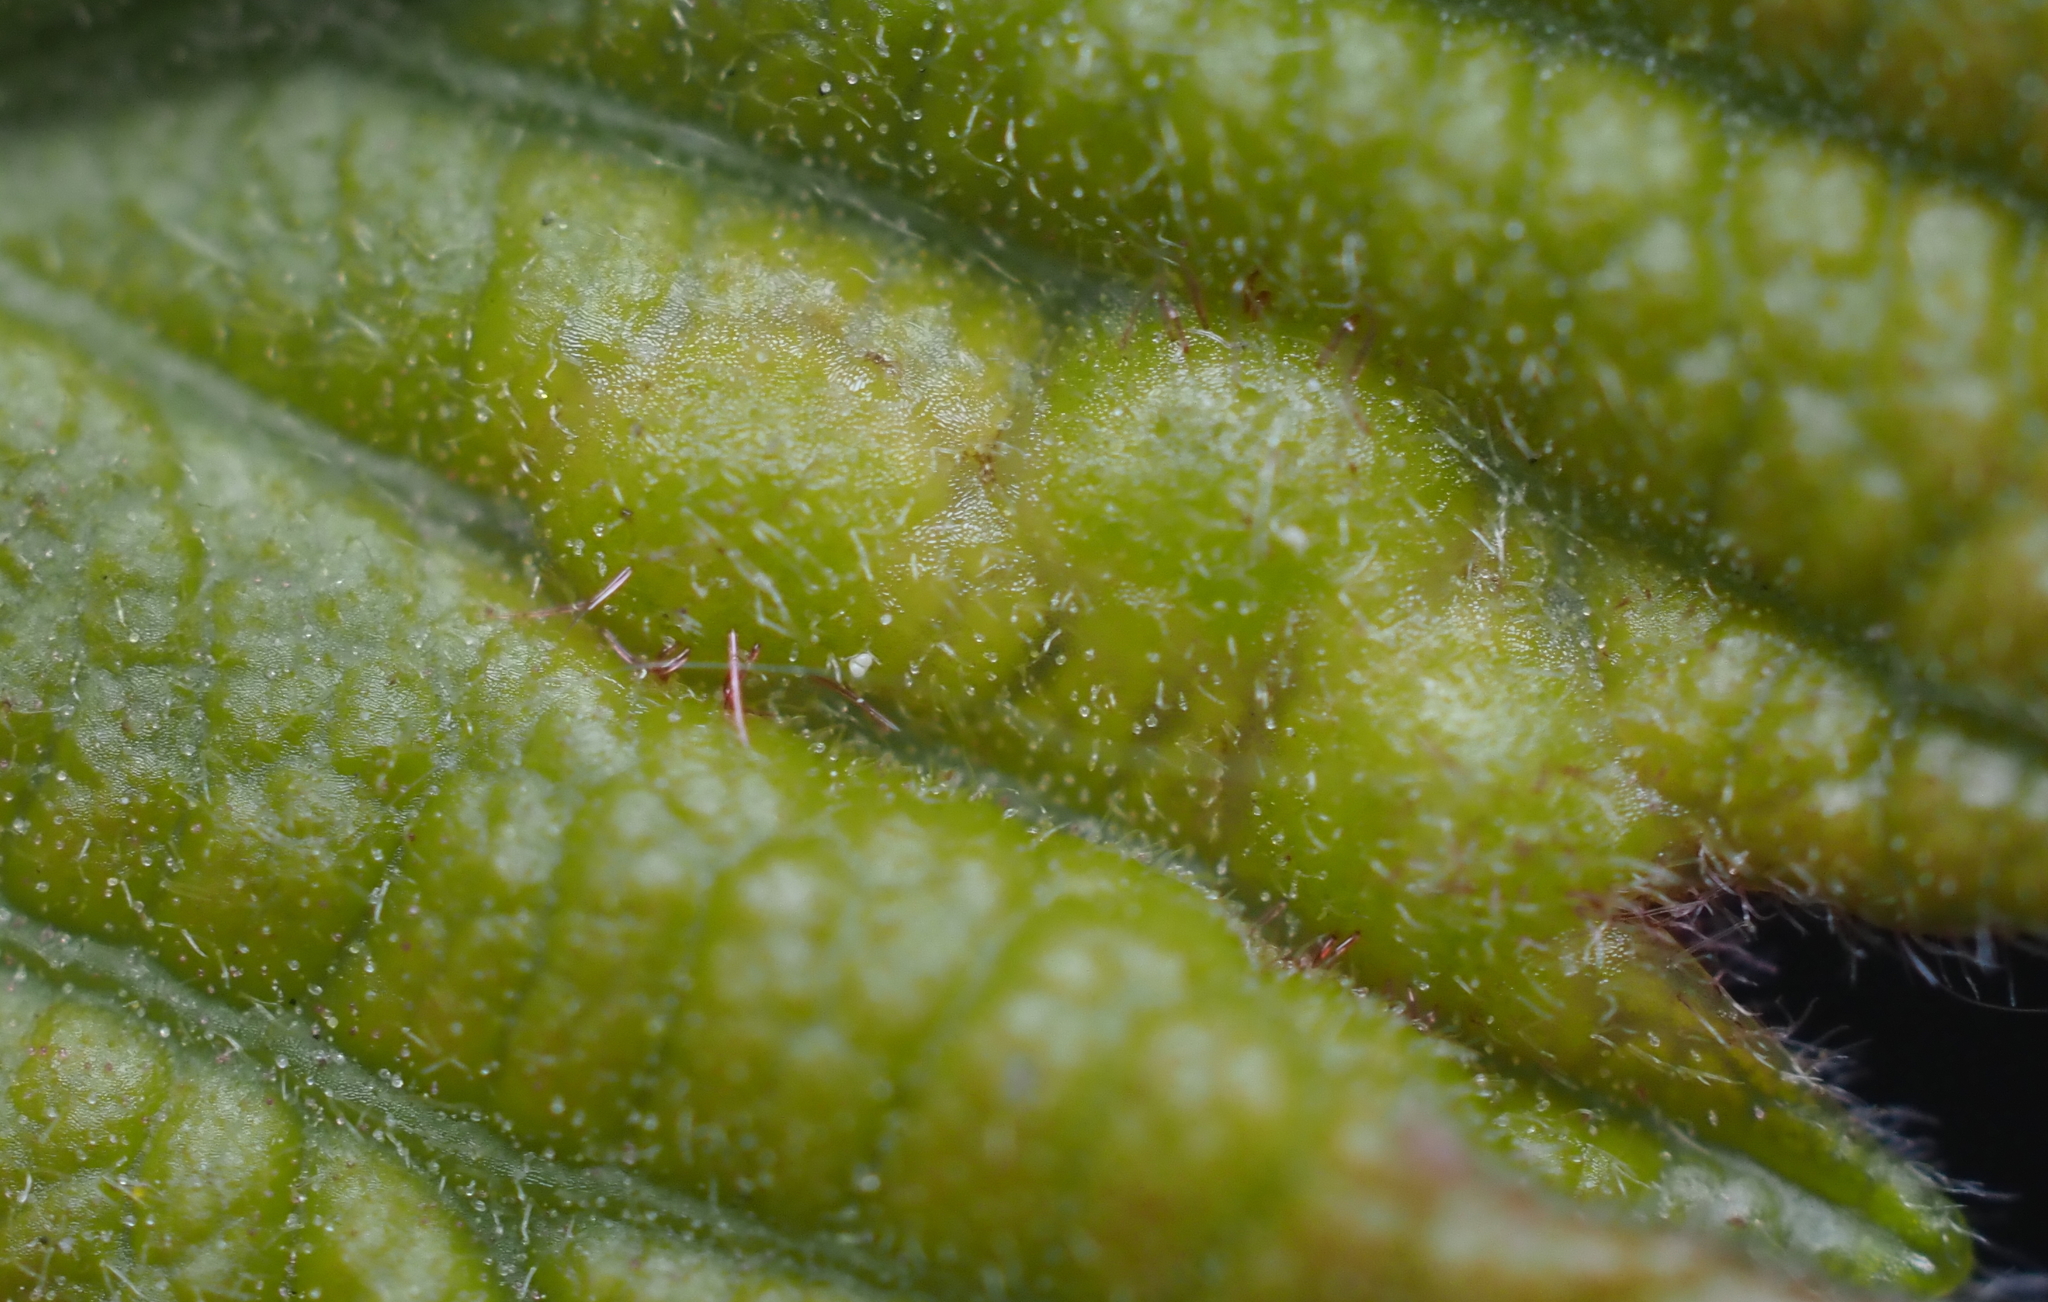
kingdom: Animalia
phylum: Arthropoda
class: Insecta
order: Hymenoptera
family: Cynipidae
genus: Neuroterus
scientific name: Neuroterus
